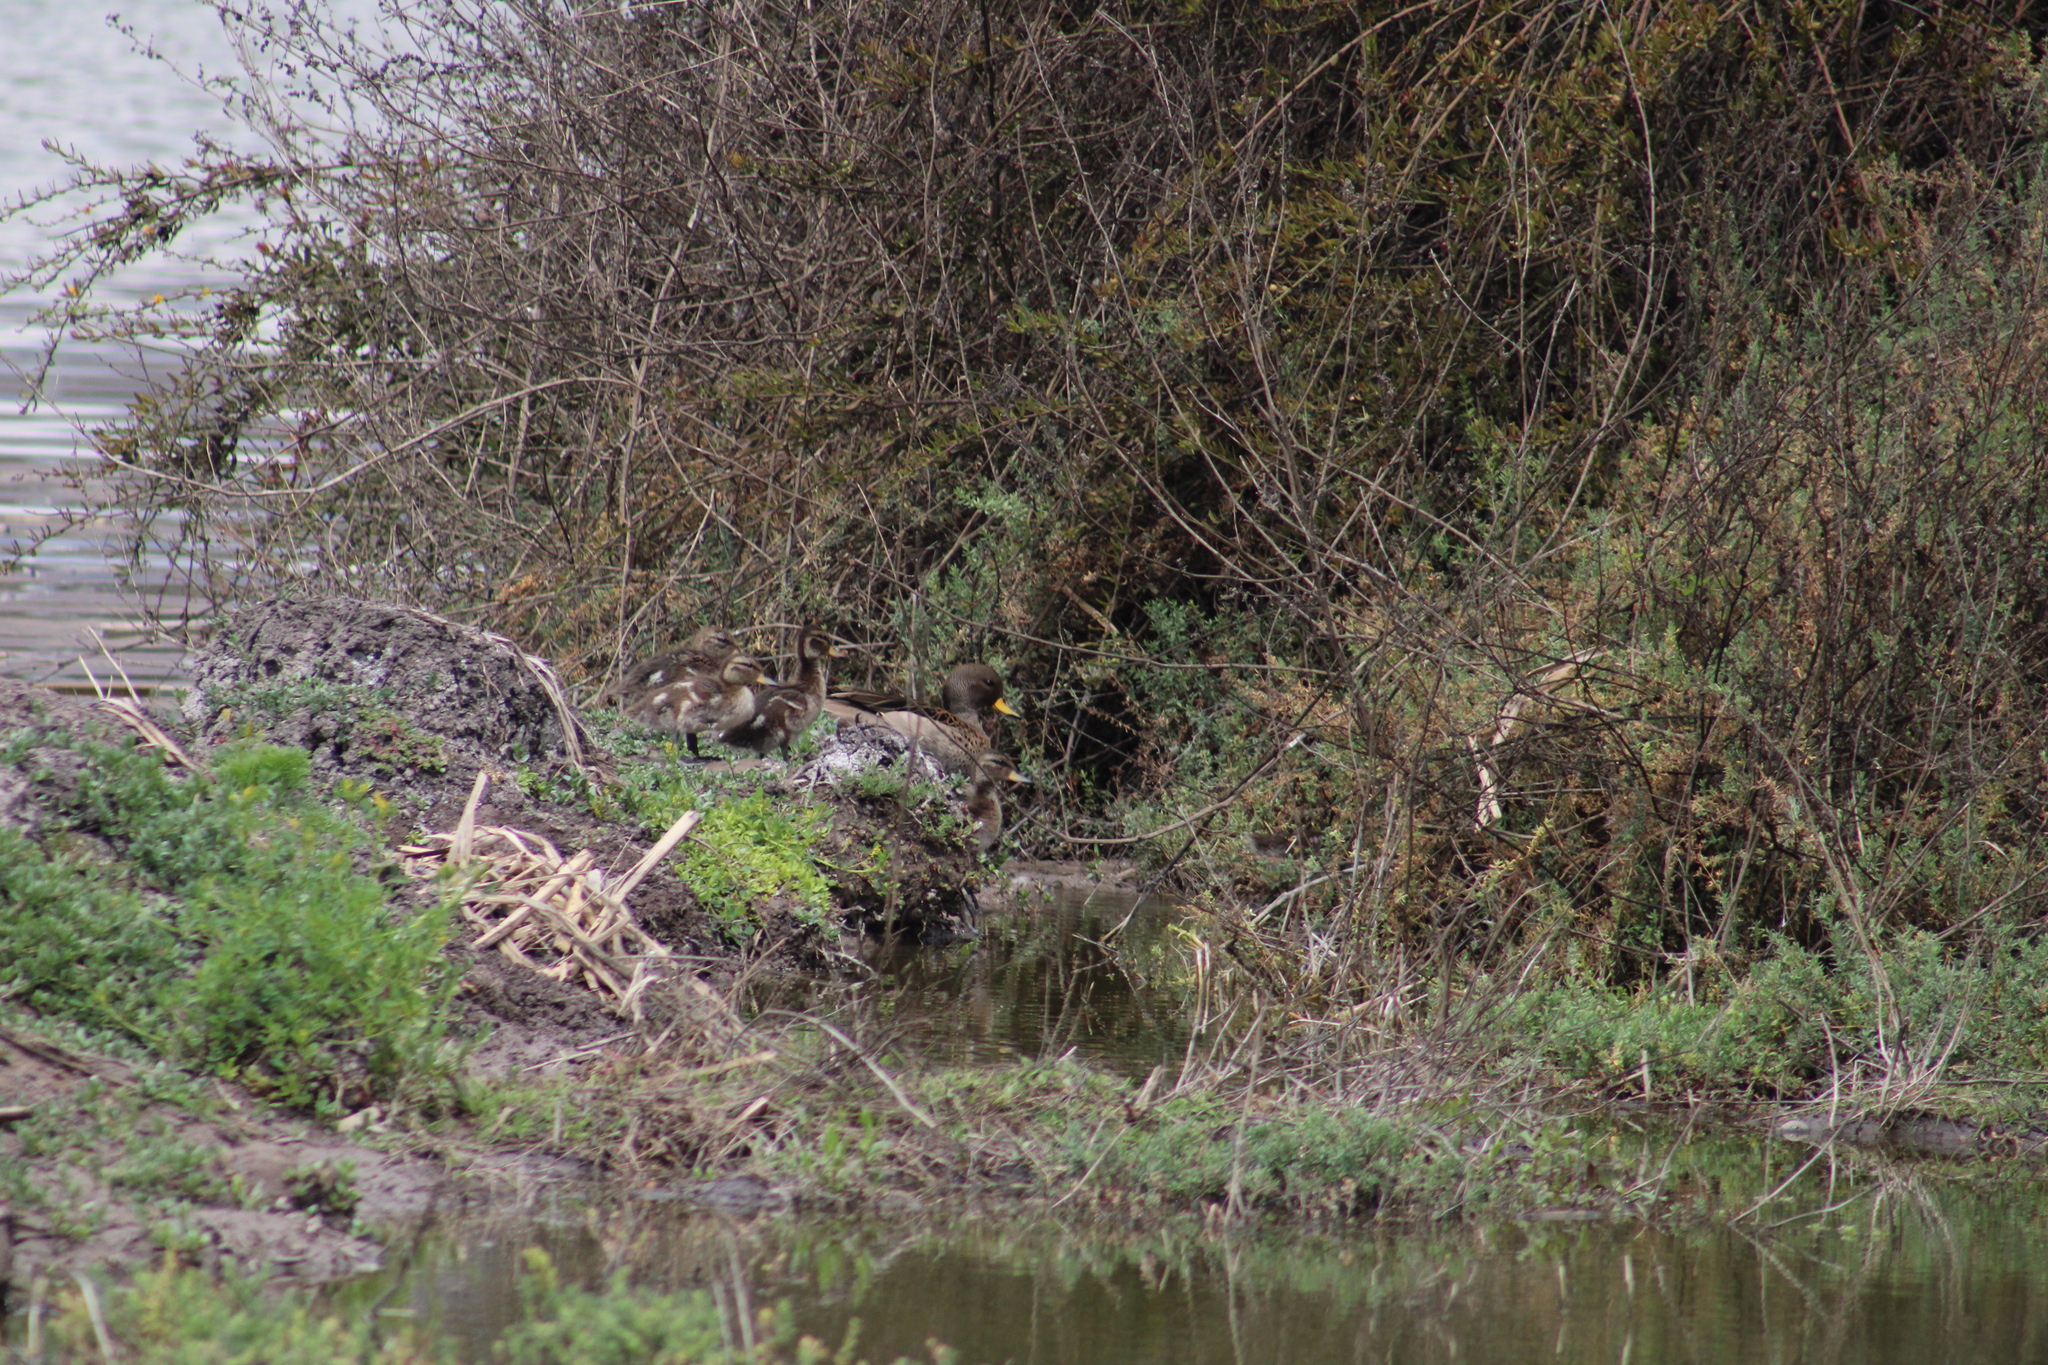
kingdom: Animalia
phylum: Chordata
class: Aves
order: Anseriformes
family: Anatidae
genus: Anas
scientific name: Anas flavirostris
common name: Yellow-billed teal
